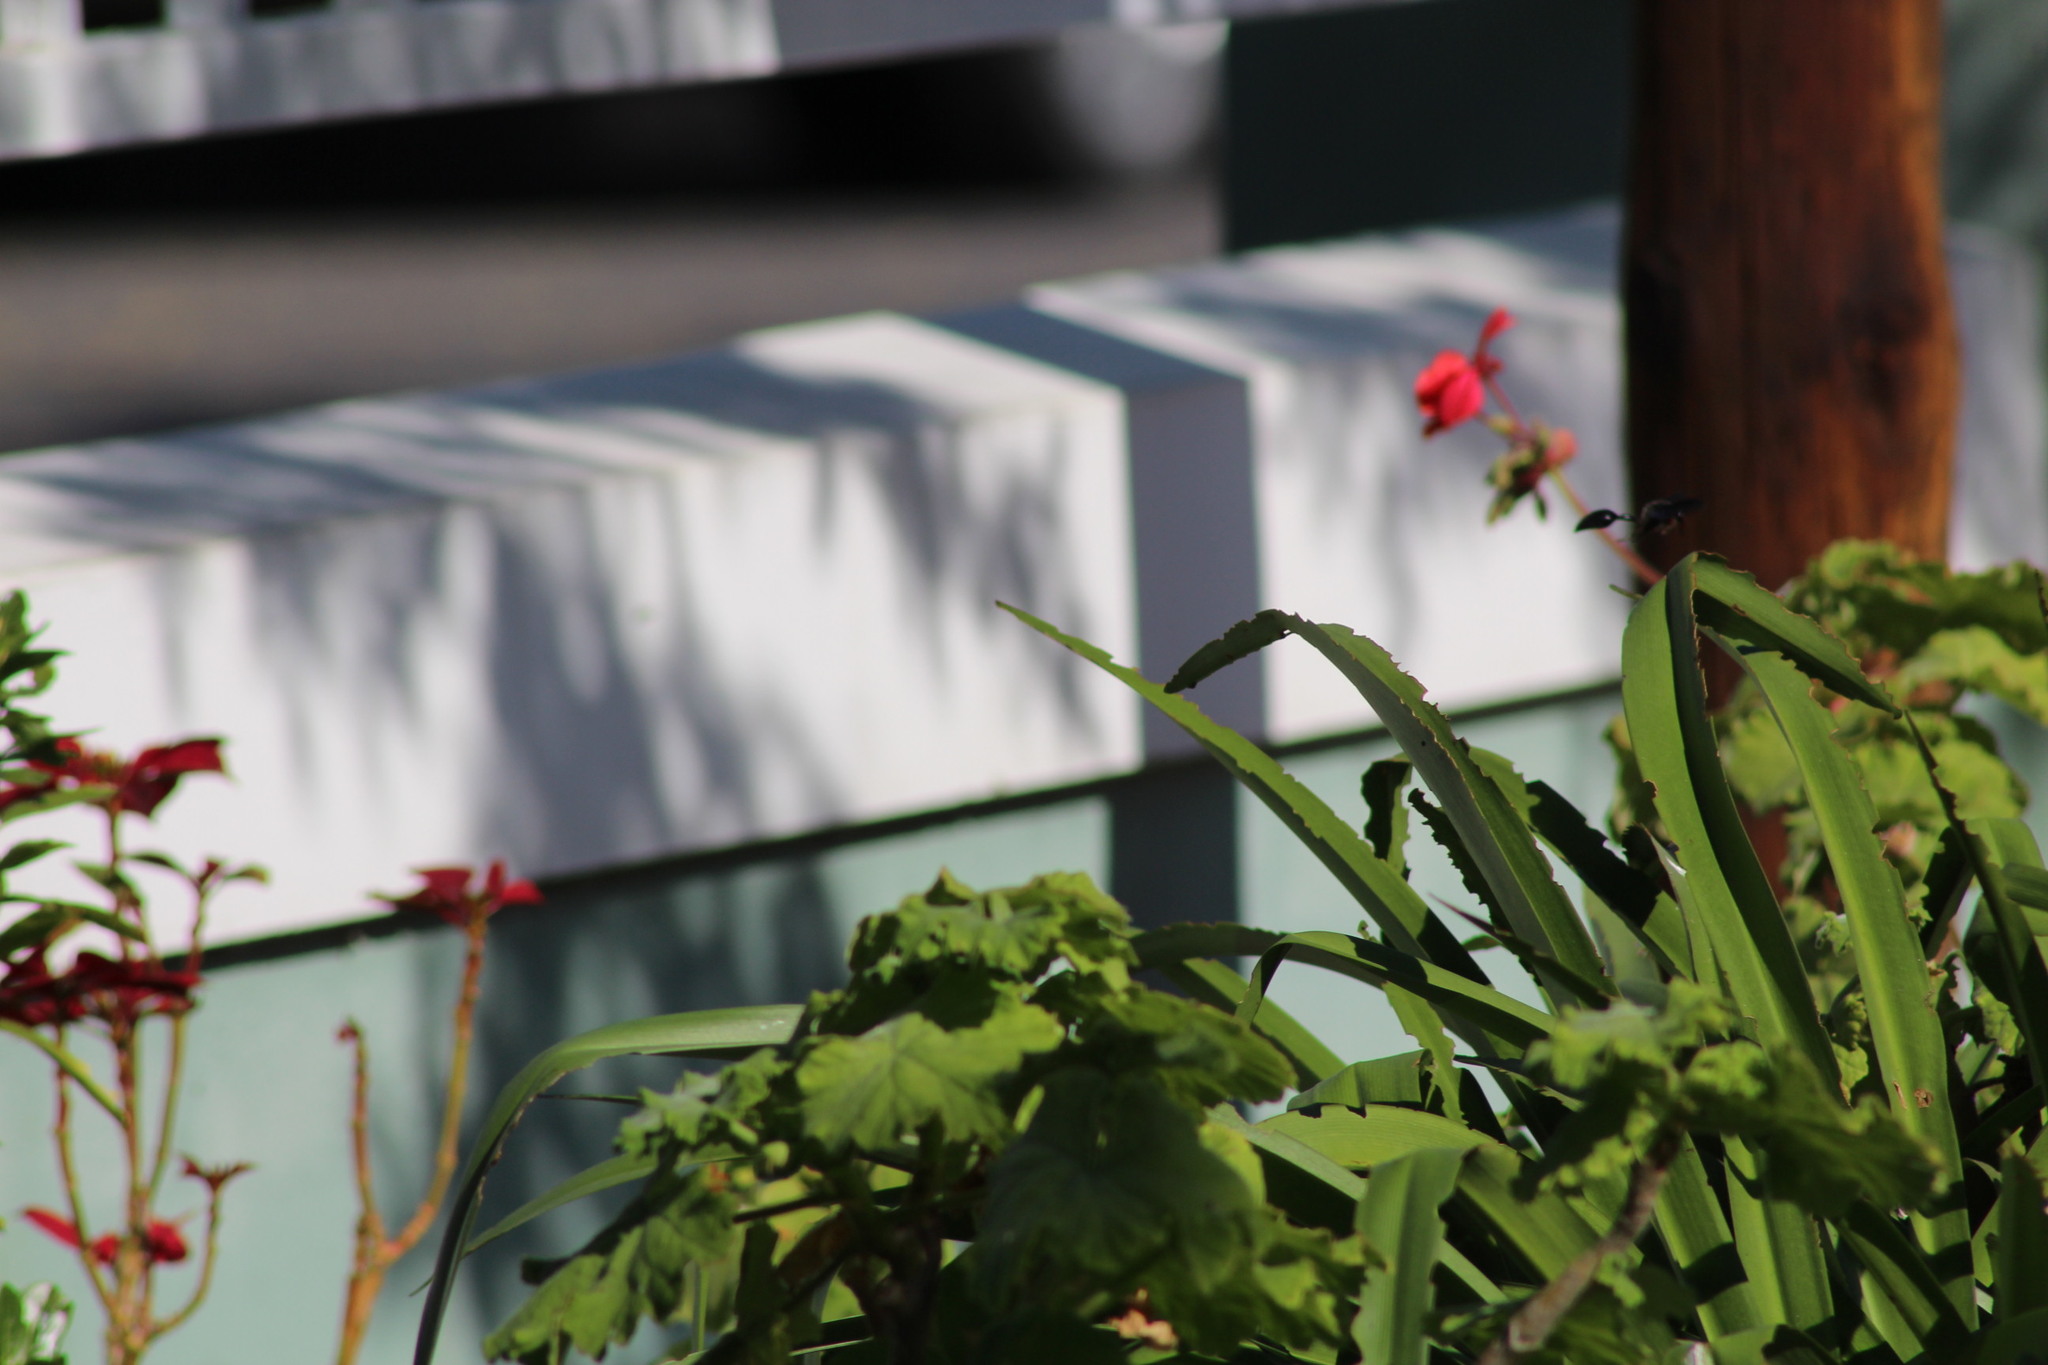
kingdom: Animalia
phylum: Arthropoda
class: Insecta
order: Hymenoptera
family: Eumenidae
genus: Delta
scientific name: Delta
